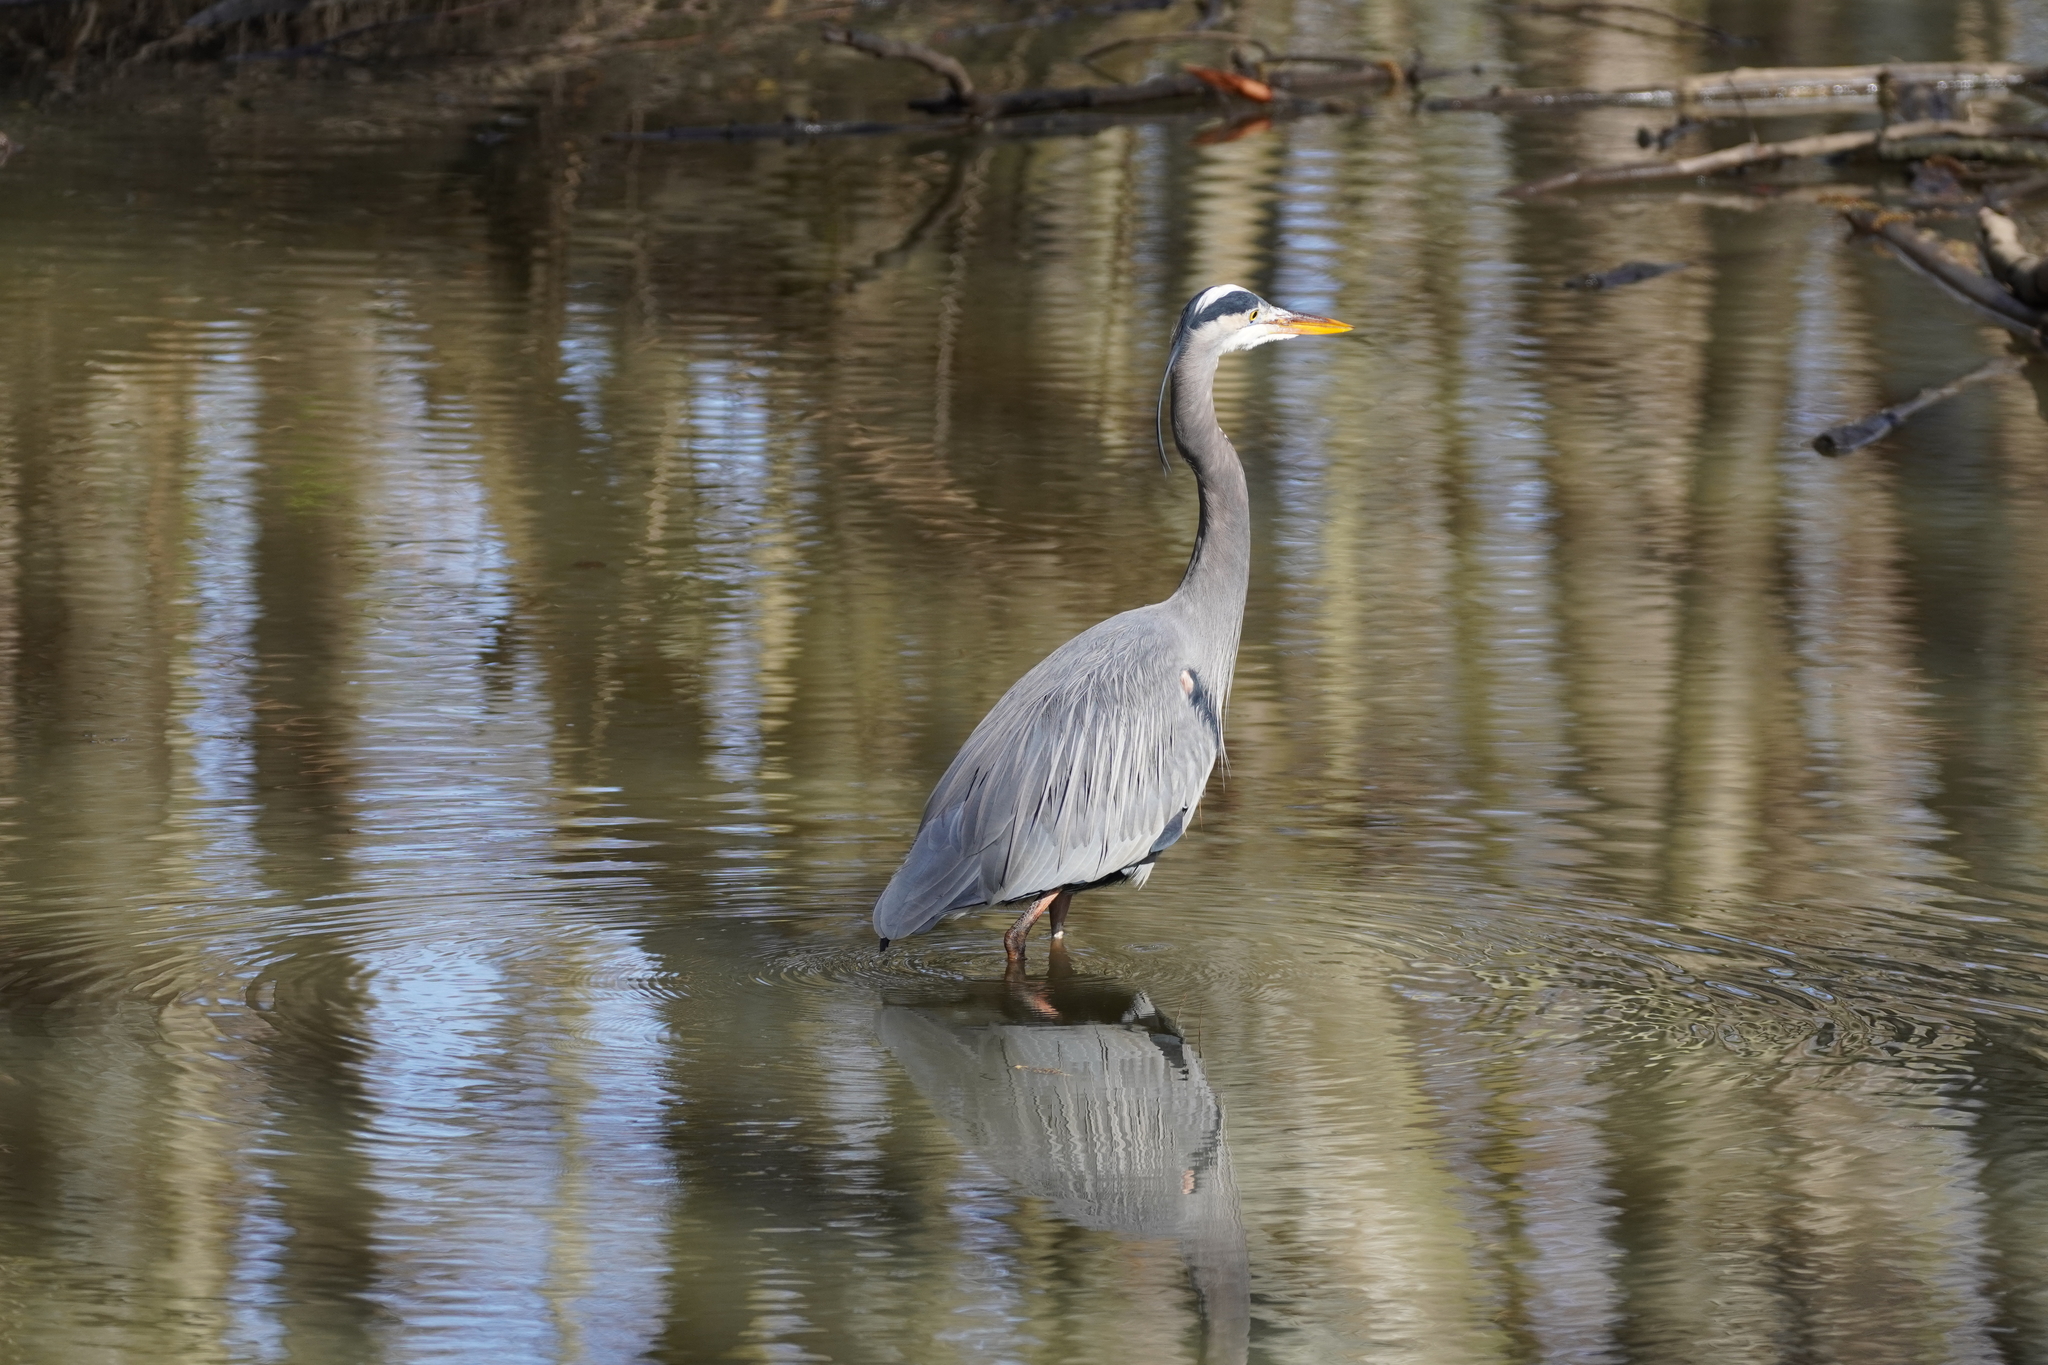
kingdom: Animalia
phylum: Chordata
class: Aves
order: Pelecaniformes
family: Ardeidae
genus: Ardea
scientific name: Ardea herodias
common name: Great blue heron
